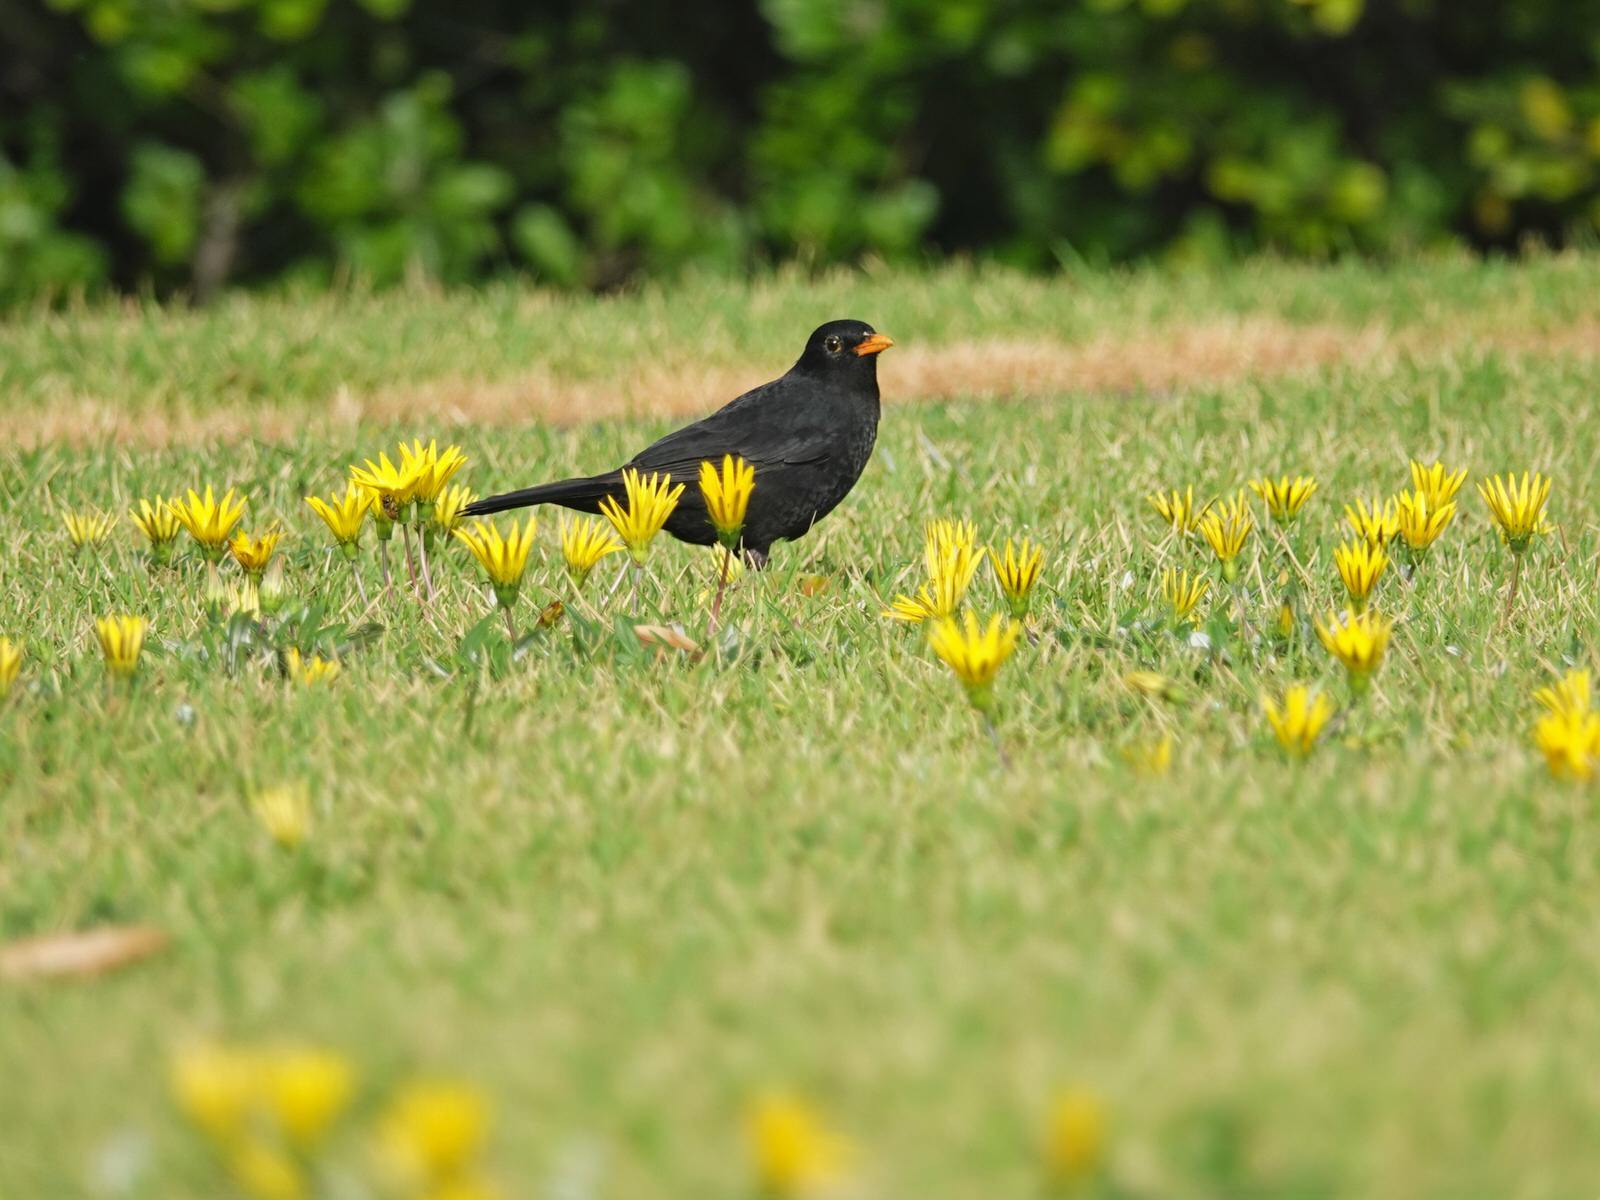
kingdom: Animalia
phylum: Chordata
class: Aves
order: Passeriformes
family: Turdidae
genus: Turdus
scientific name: Turdus merula
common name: Common blackbird
